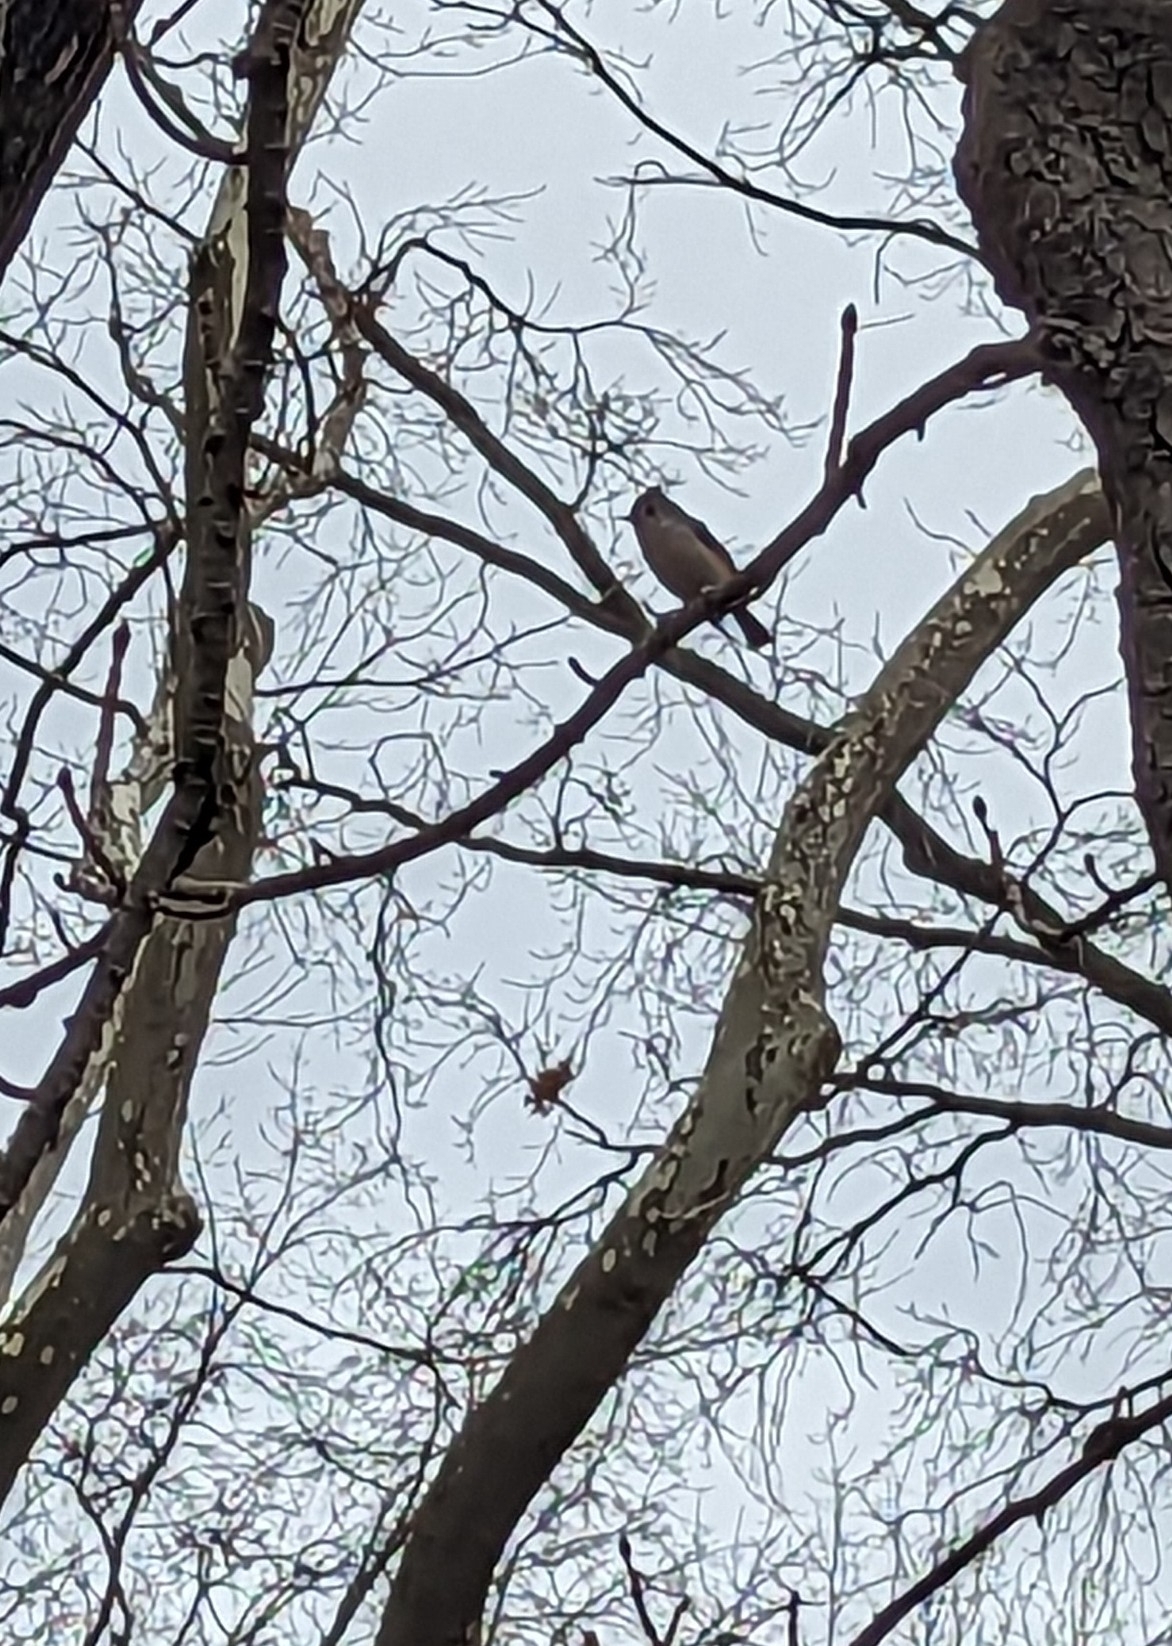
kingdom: Animalia
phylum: Chordata
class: Aves
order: Passeriformes
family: Paridae
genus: Baeolophus
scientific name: Baeolophus bicolor
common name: Tufted titmouse
